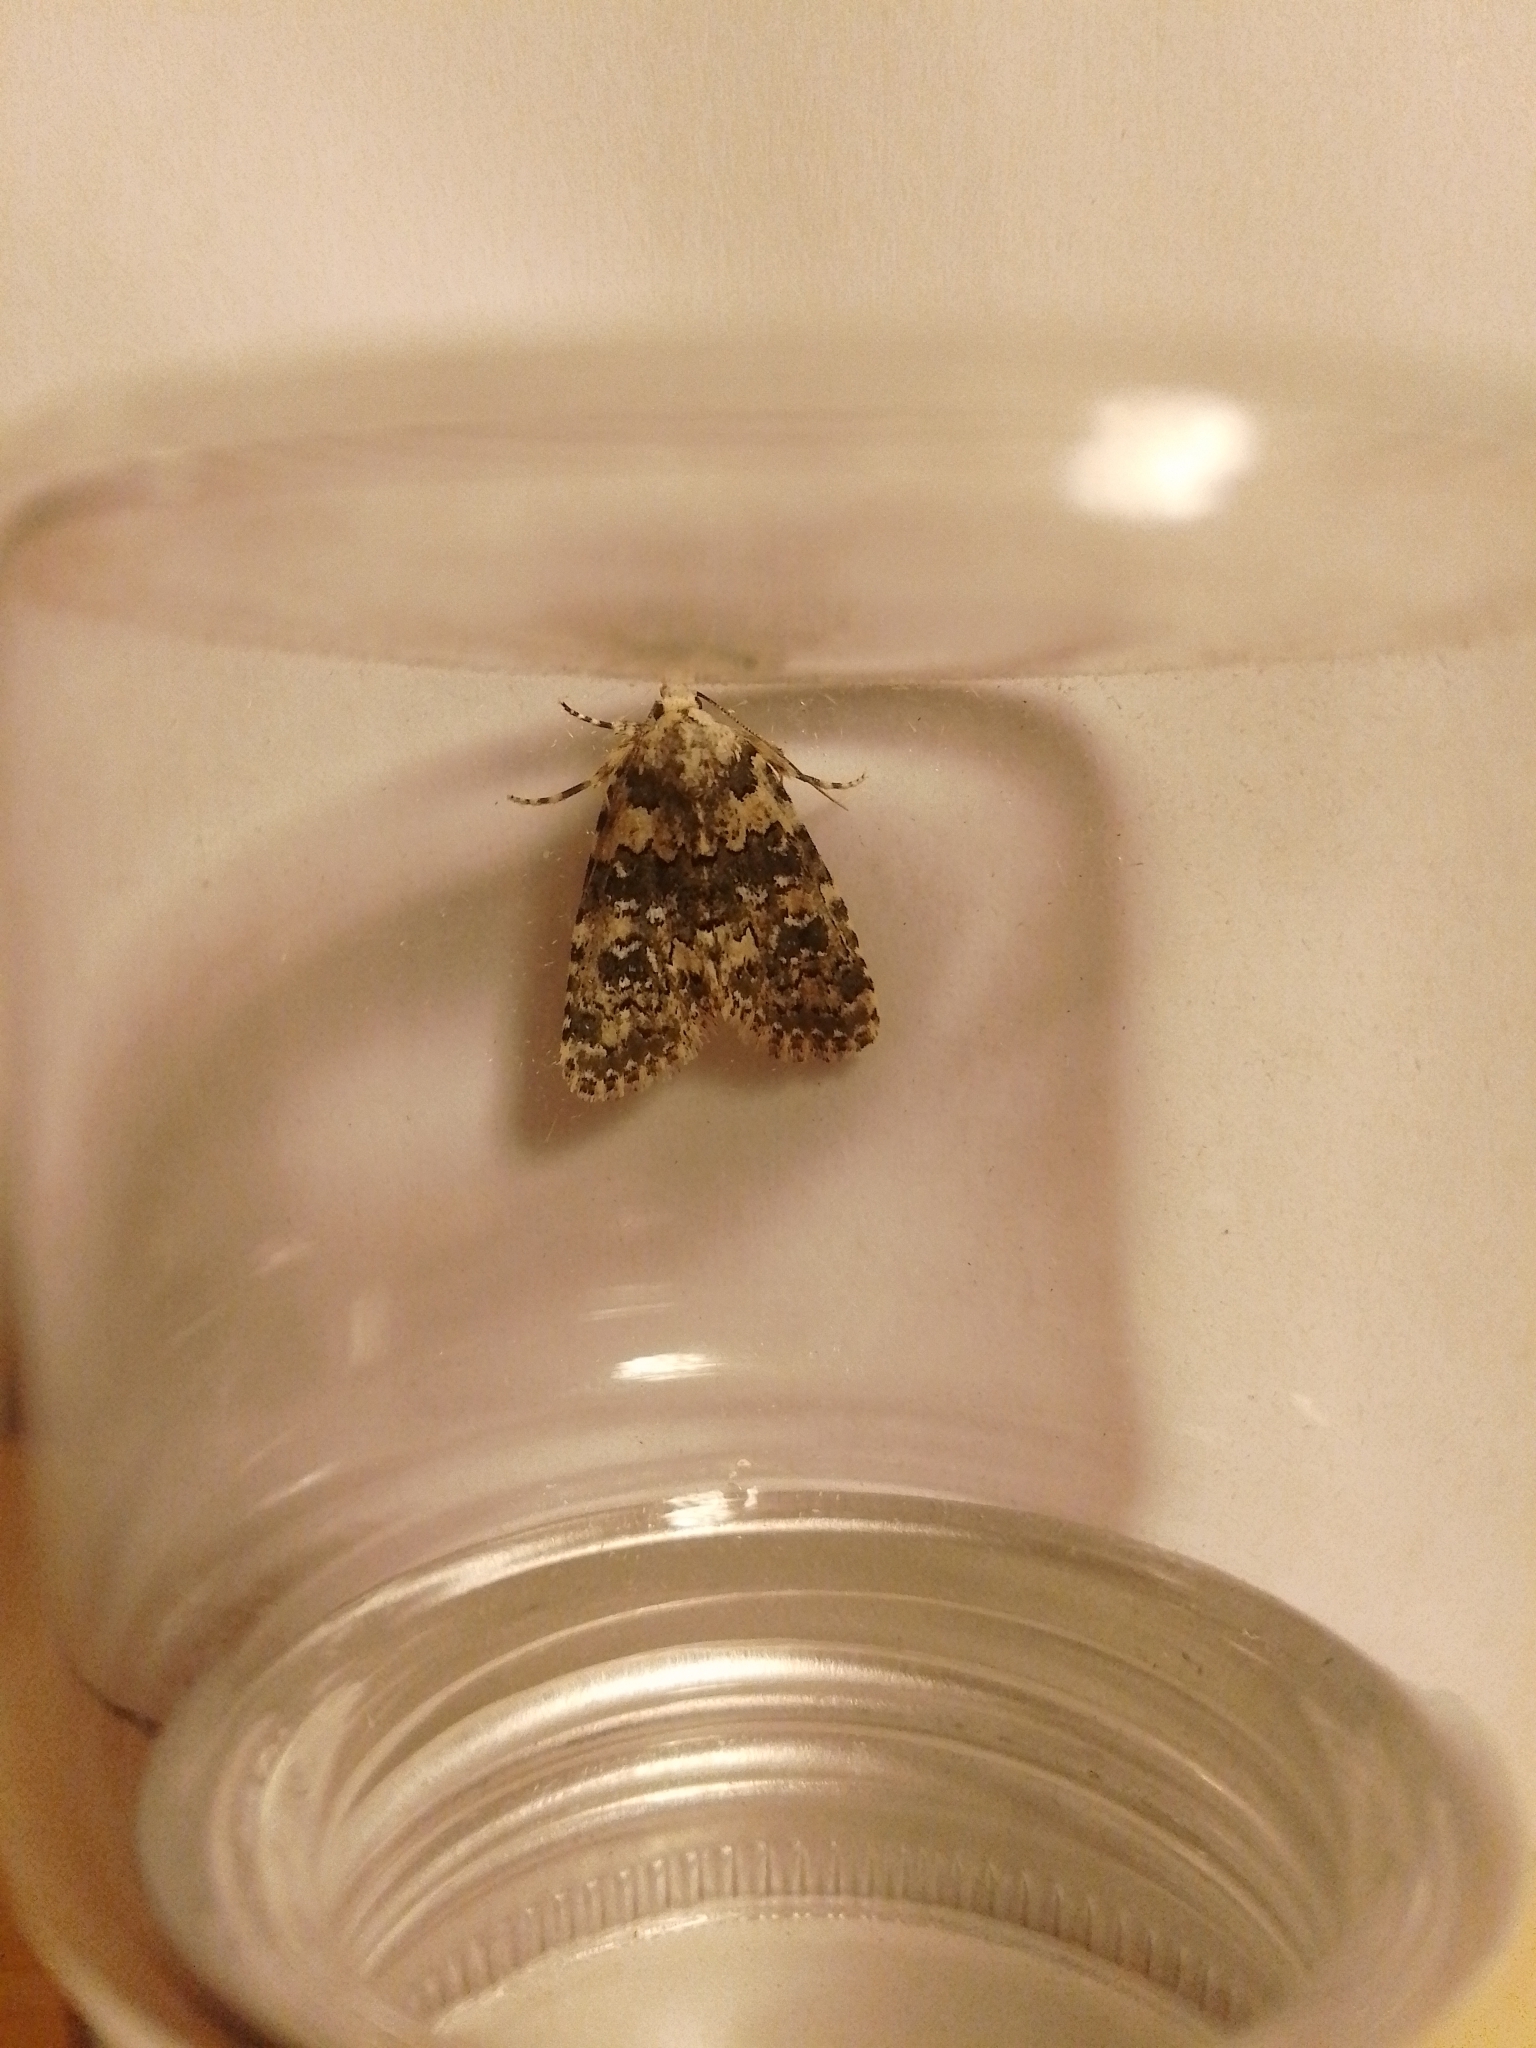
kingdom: Animalia
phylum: Arthropoda
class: Insecta
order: Lepidoptera
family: Noctuidae
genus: Bryophila
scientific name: Bryophila domestica
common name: Marbled beauty
